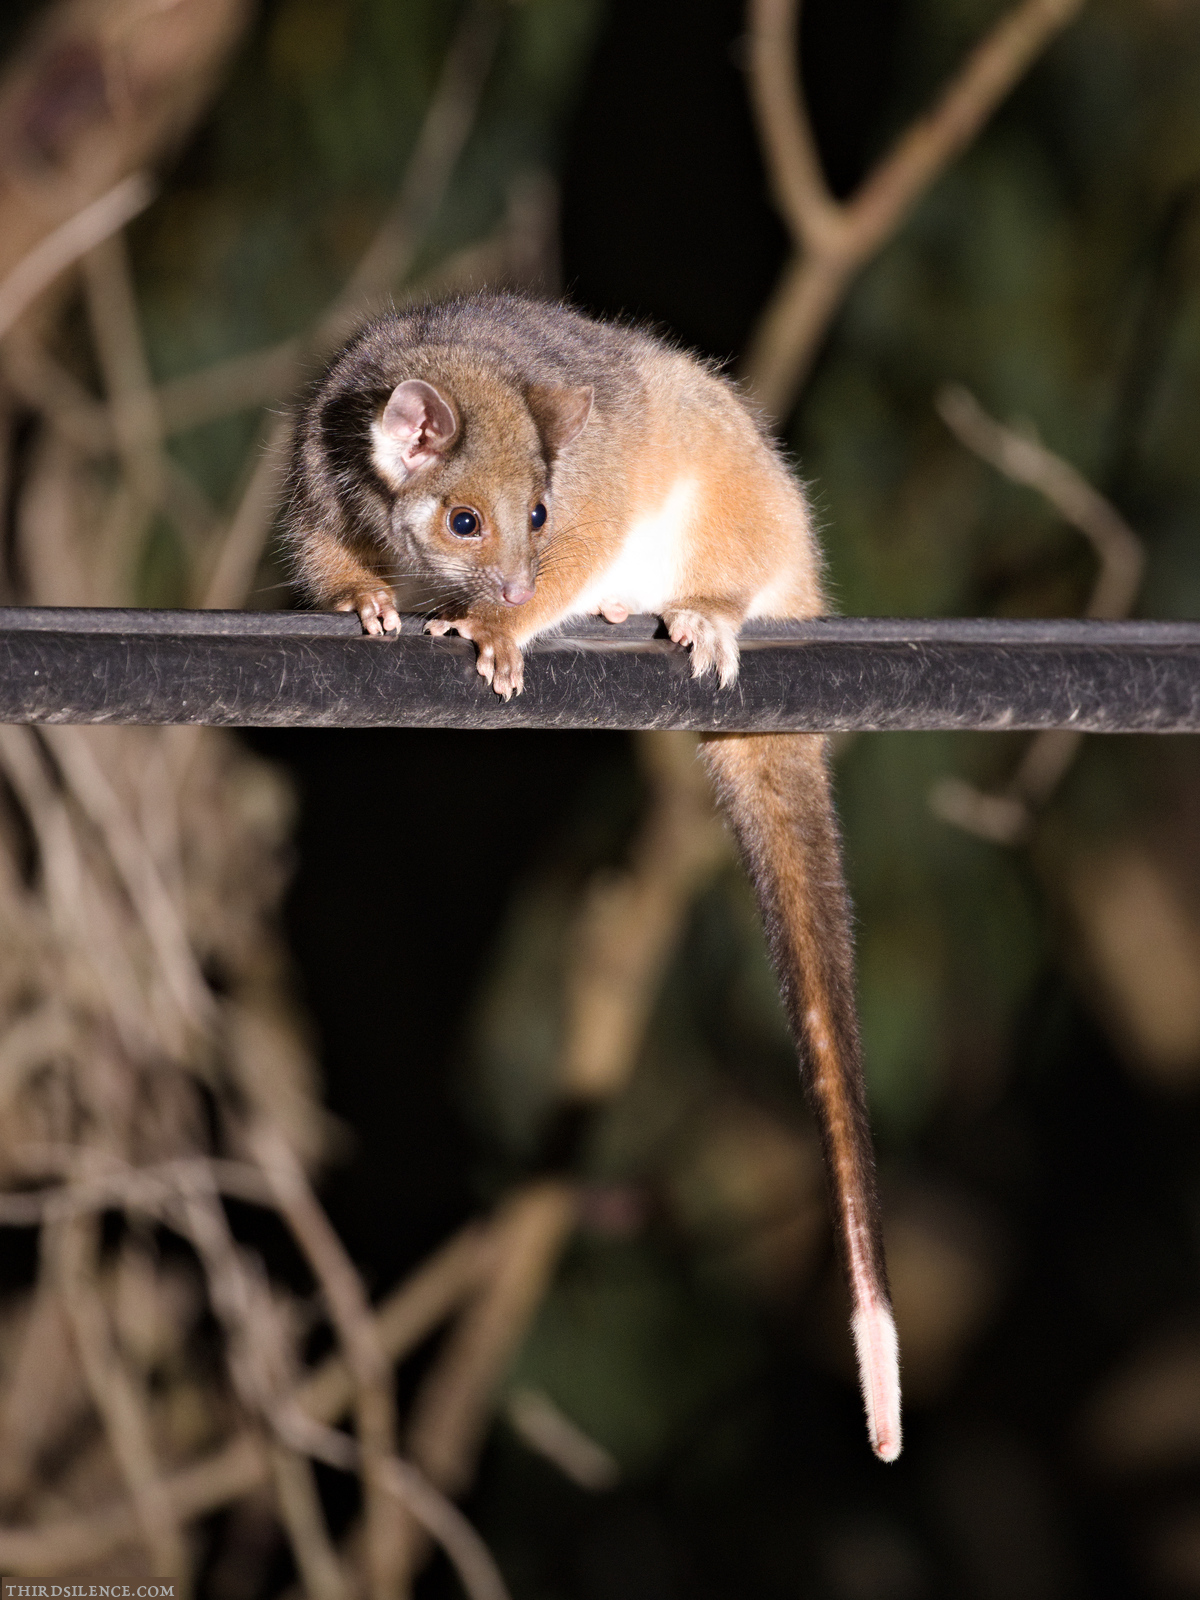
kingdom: Animalia
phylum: Chordata
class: Mammalia
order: Diprotodontia
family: Pseudocheiridae
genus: Pseudocheirus
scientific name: Pseudocheirus peregrinus
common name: Common ringtail possum
